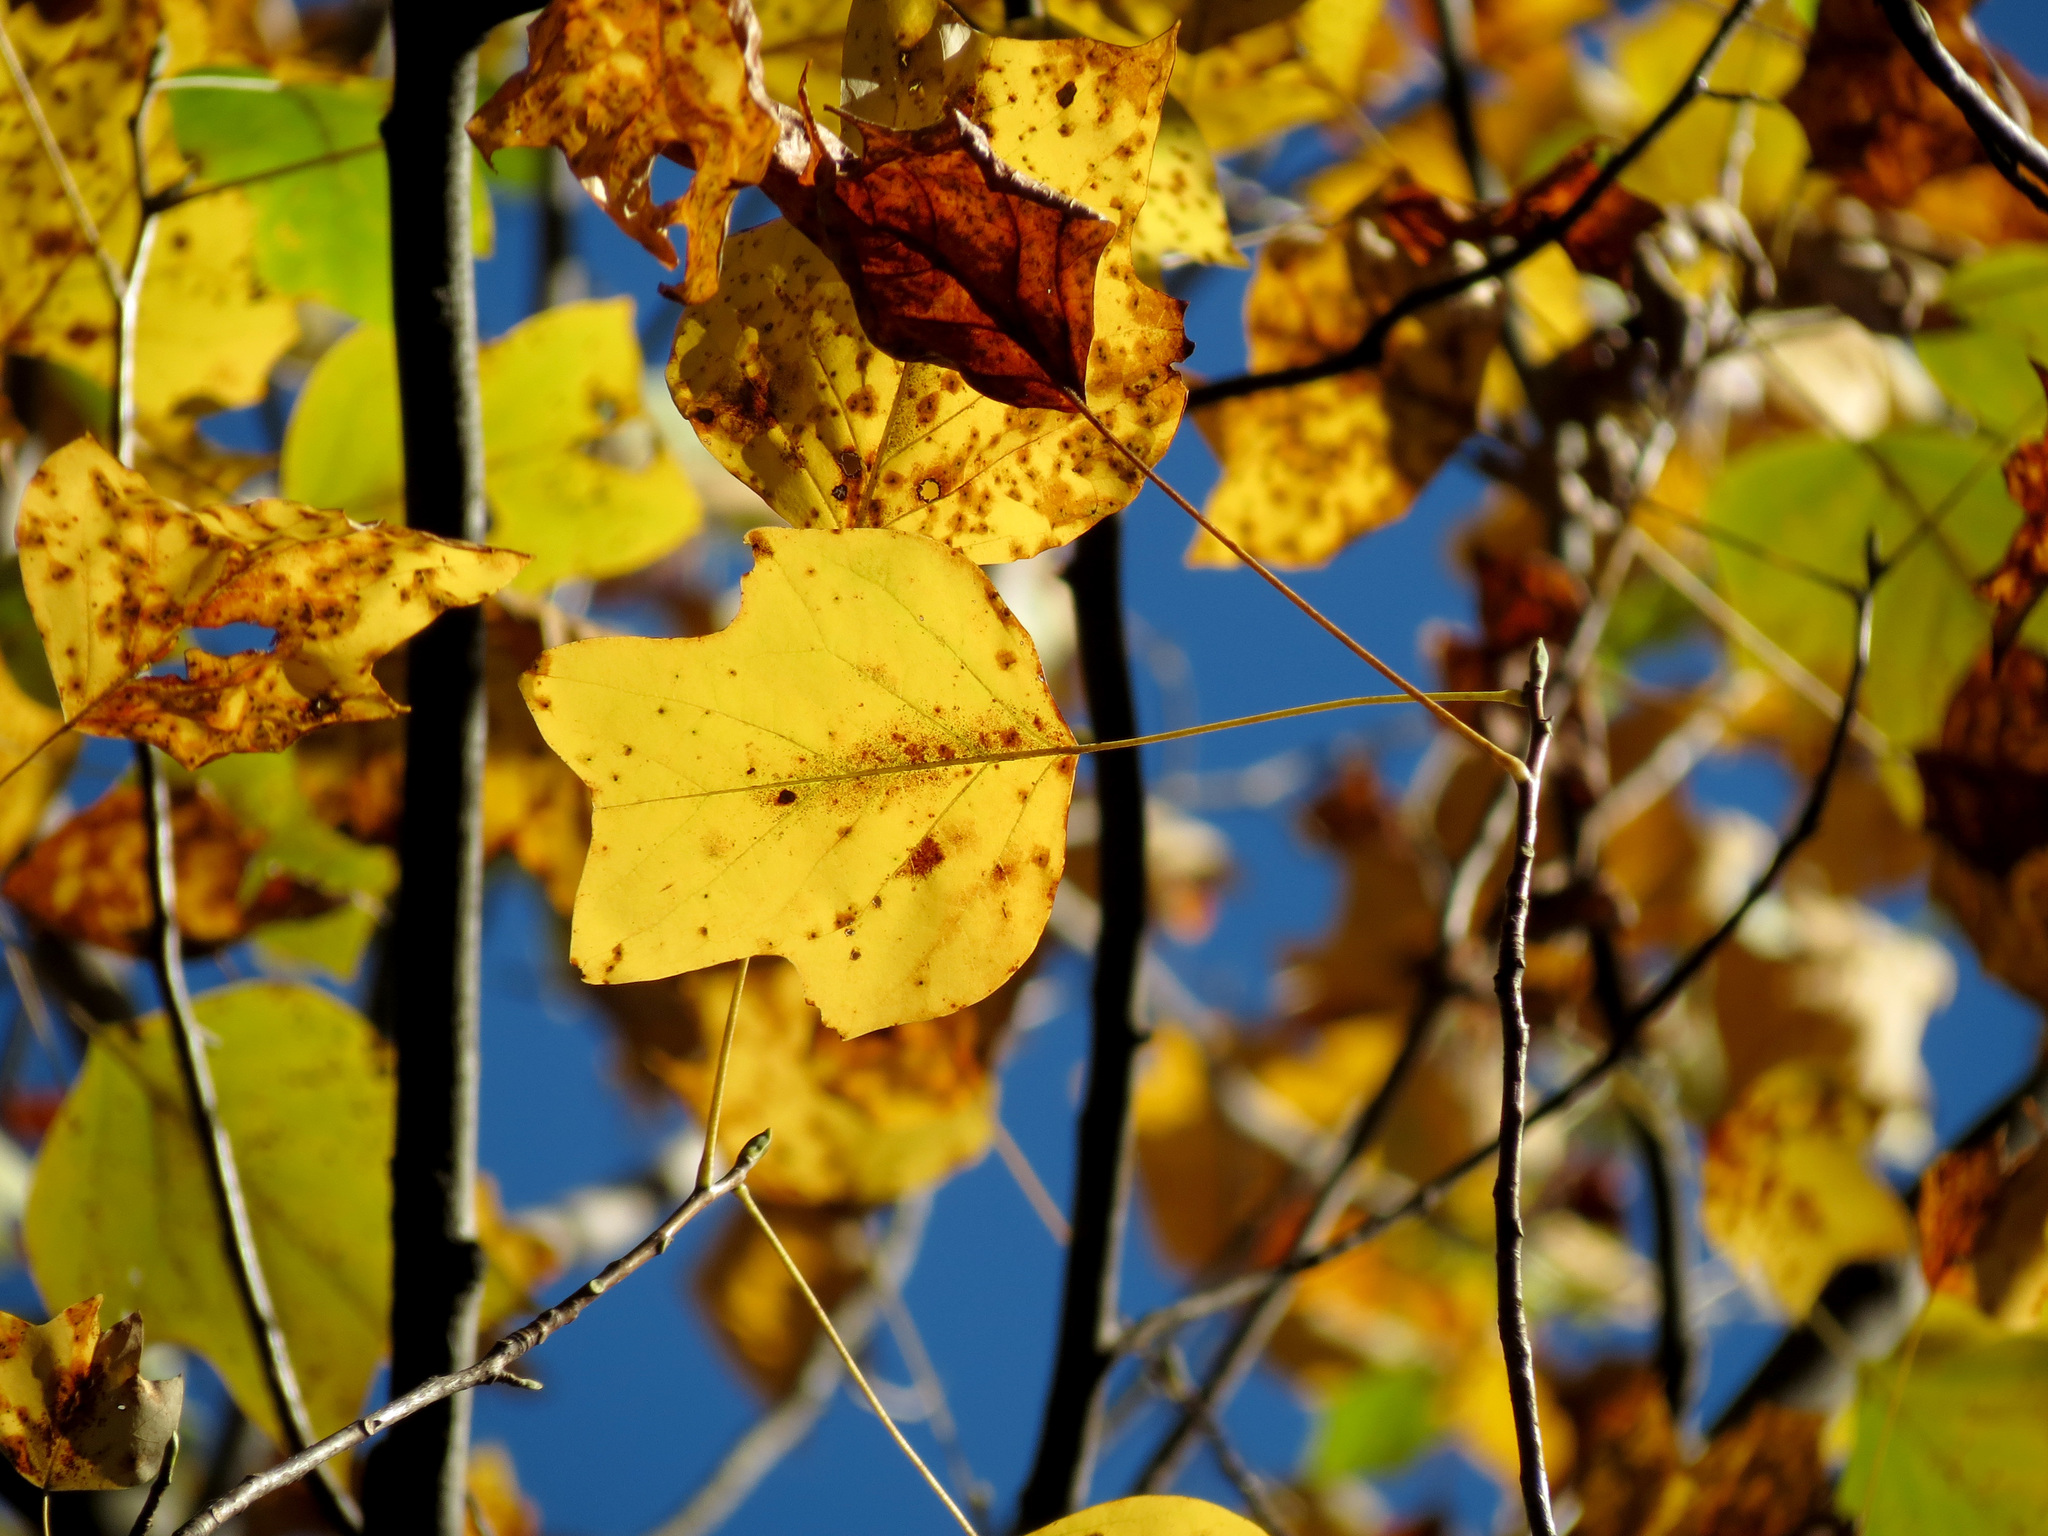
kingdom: Plantae
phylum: Tracheophyta
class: Magnoliopsida
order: Magnoliales
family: Magnoliaceae
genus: Liriodendron
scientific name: Liriodendron tulipifera
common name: Tulip tree
